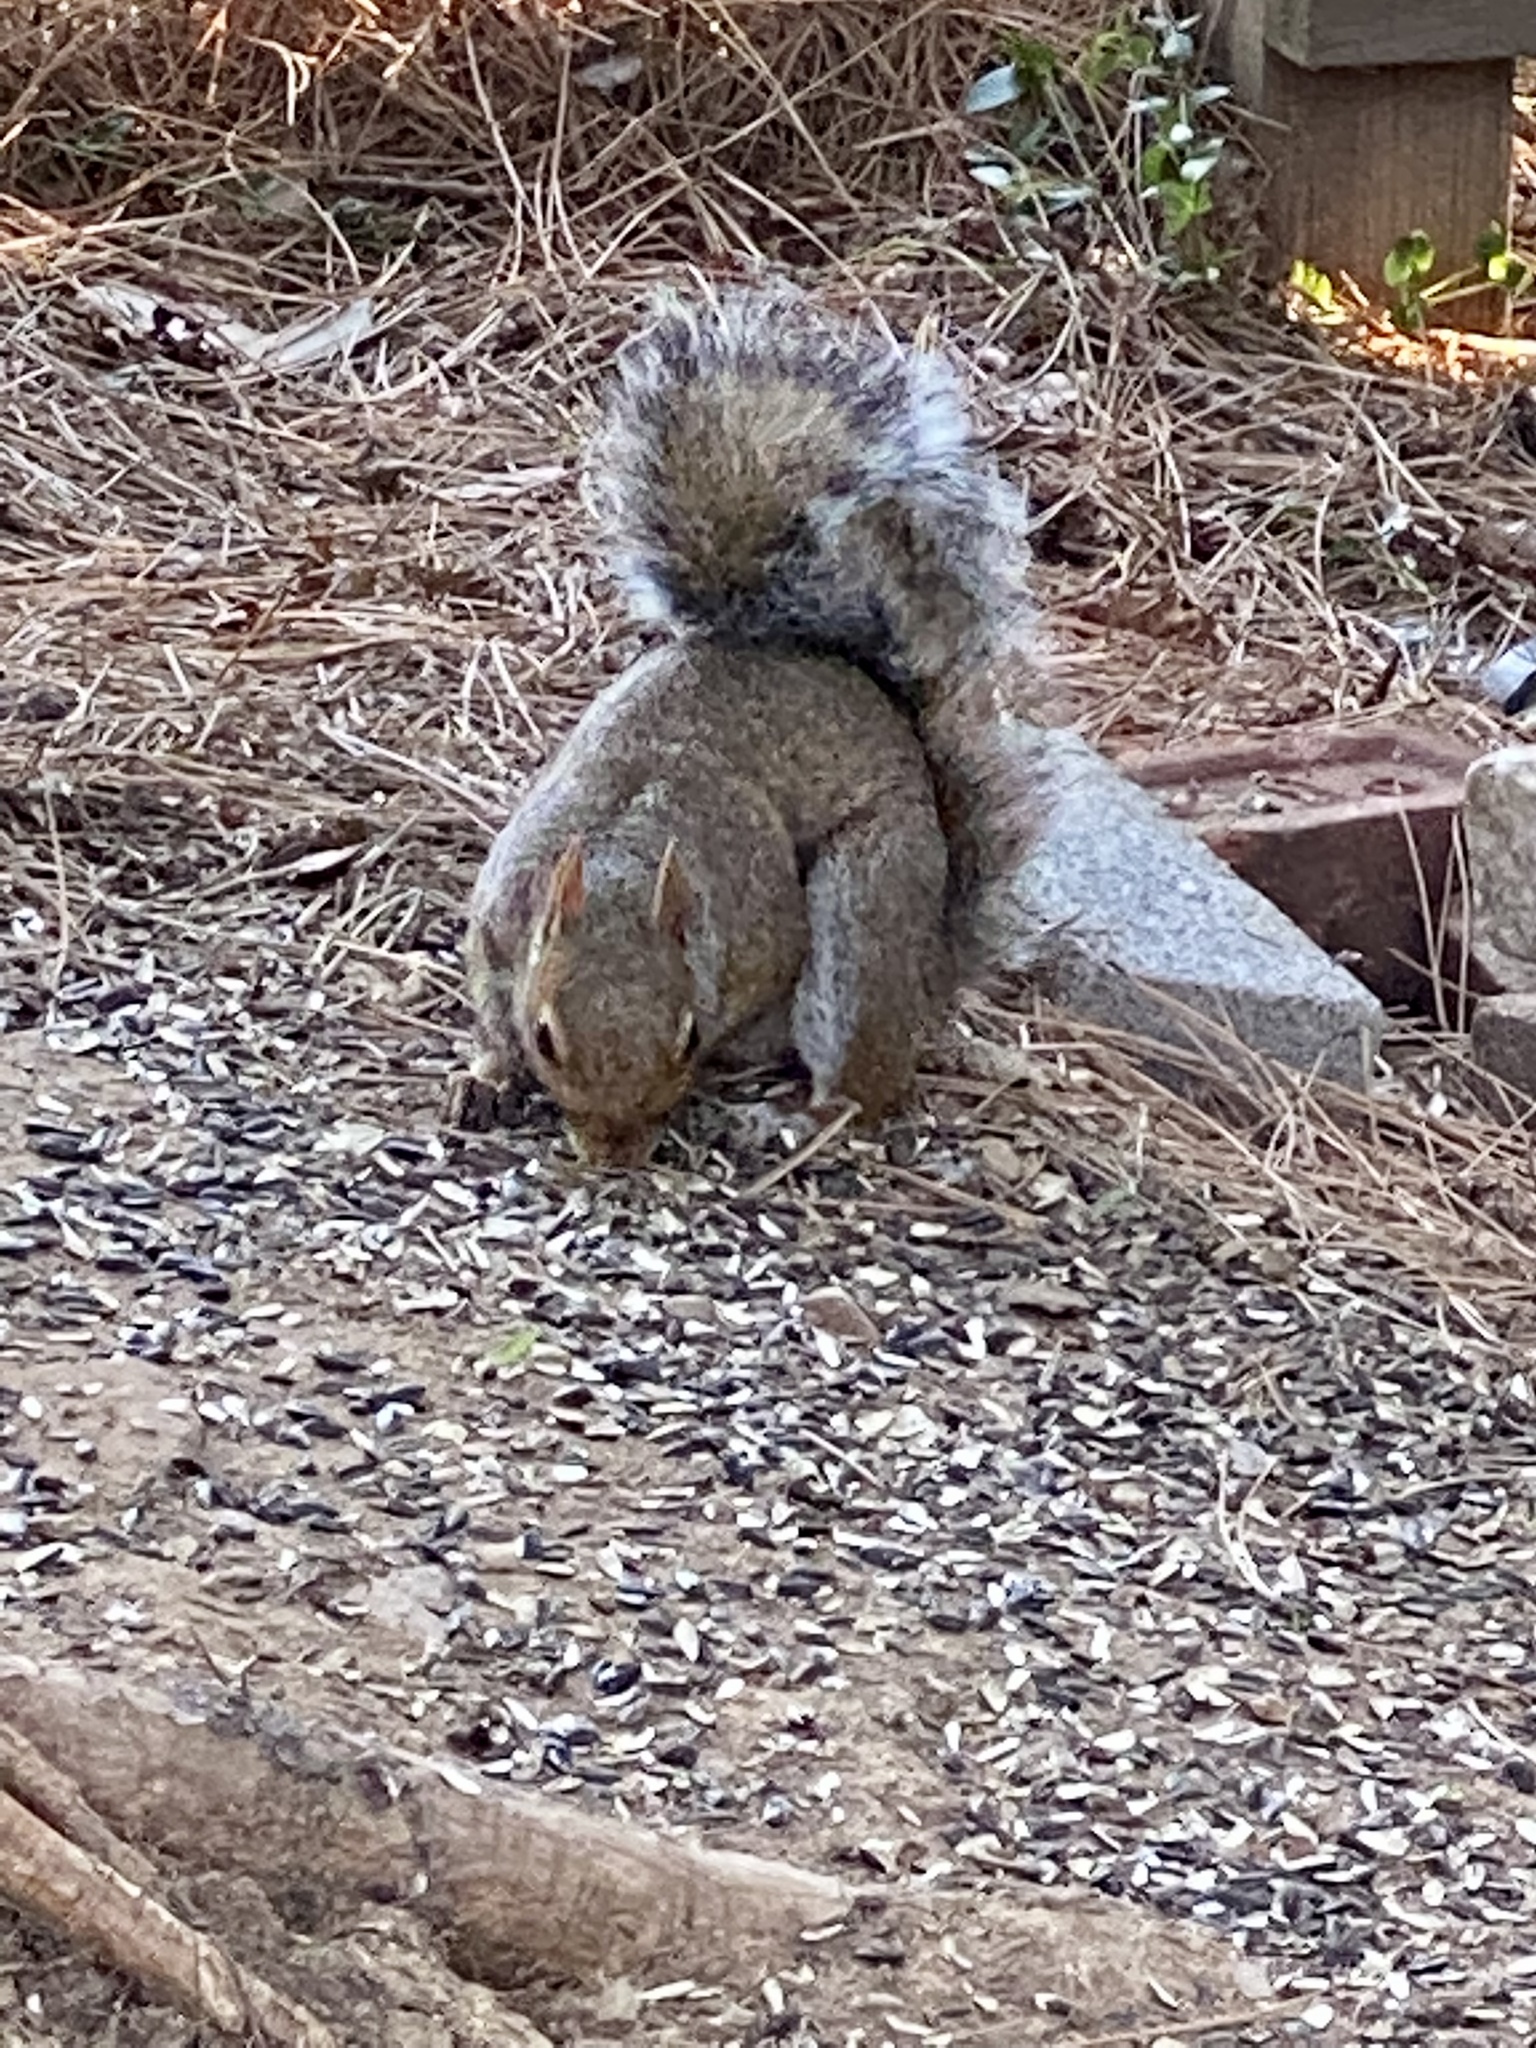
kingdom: Animalia
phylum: Chordata
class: Mammalia
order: Rodentia
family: Sciuridae
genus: Sciurus
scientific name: Sciurus carolinensis
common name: Eastern gray squirrel
